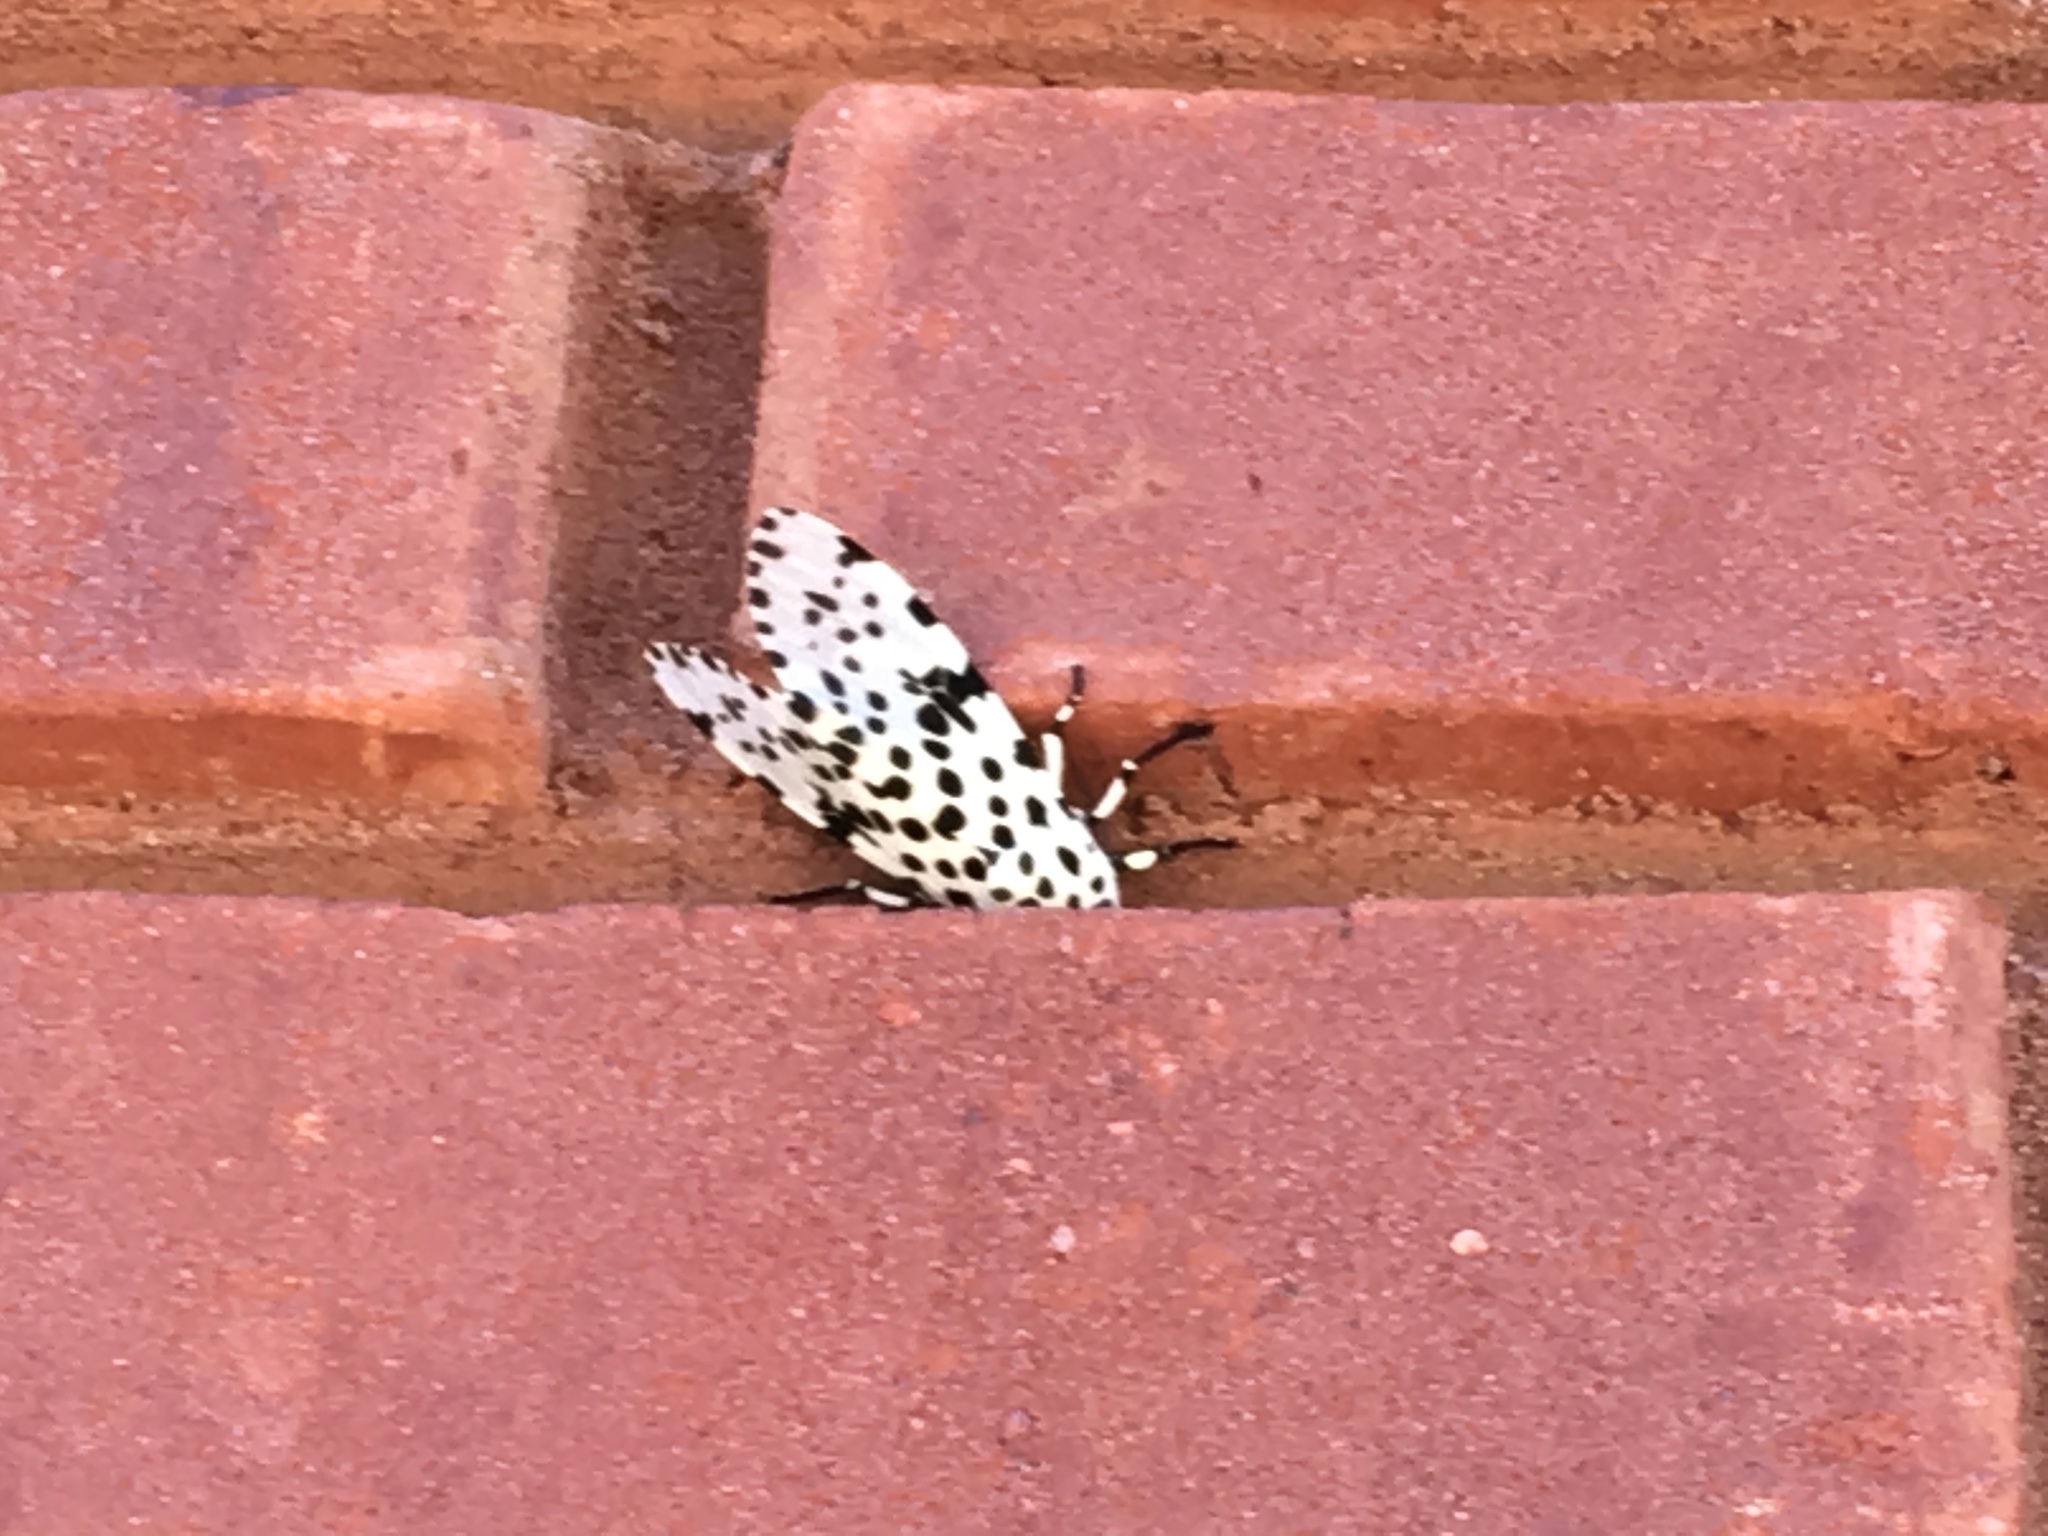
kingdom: Animalia
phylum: Arthropoda
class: Insecta
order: Lepidoptera
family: Erebidae
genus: Hypercompe
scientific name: Hypercompe scribonia
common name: Giant leopard moth
